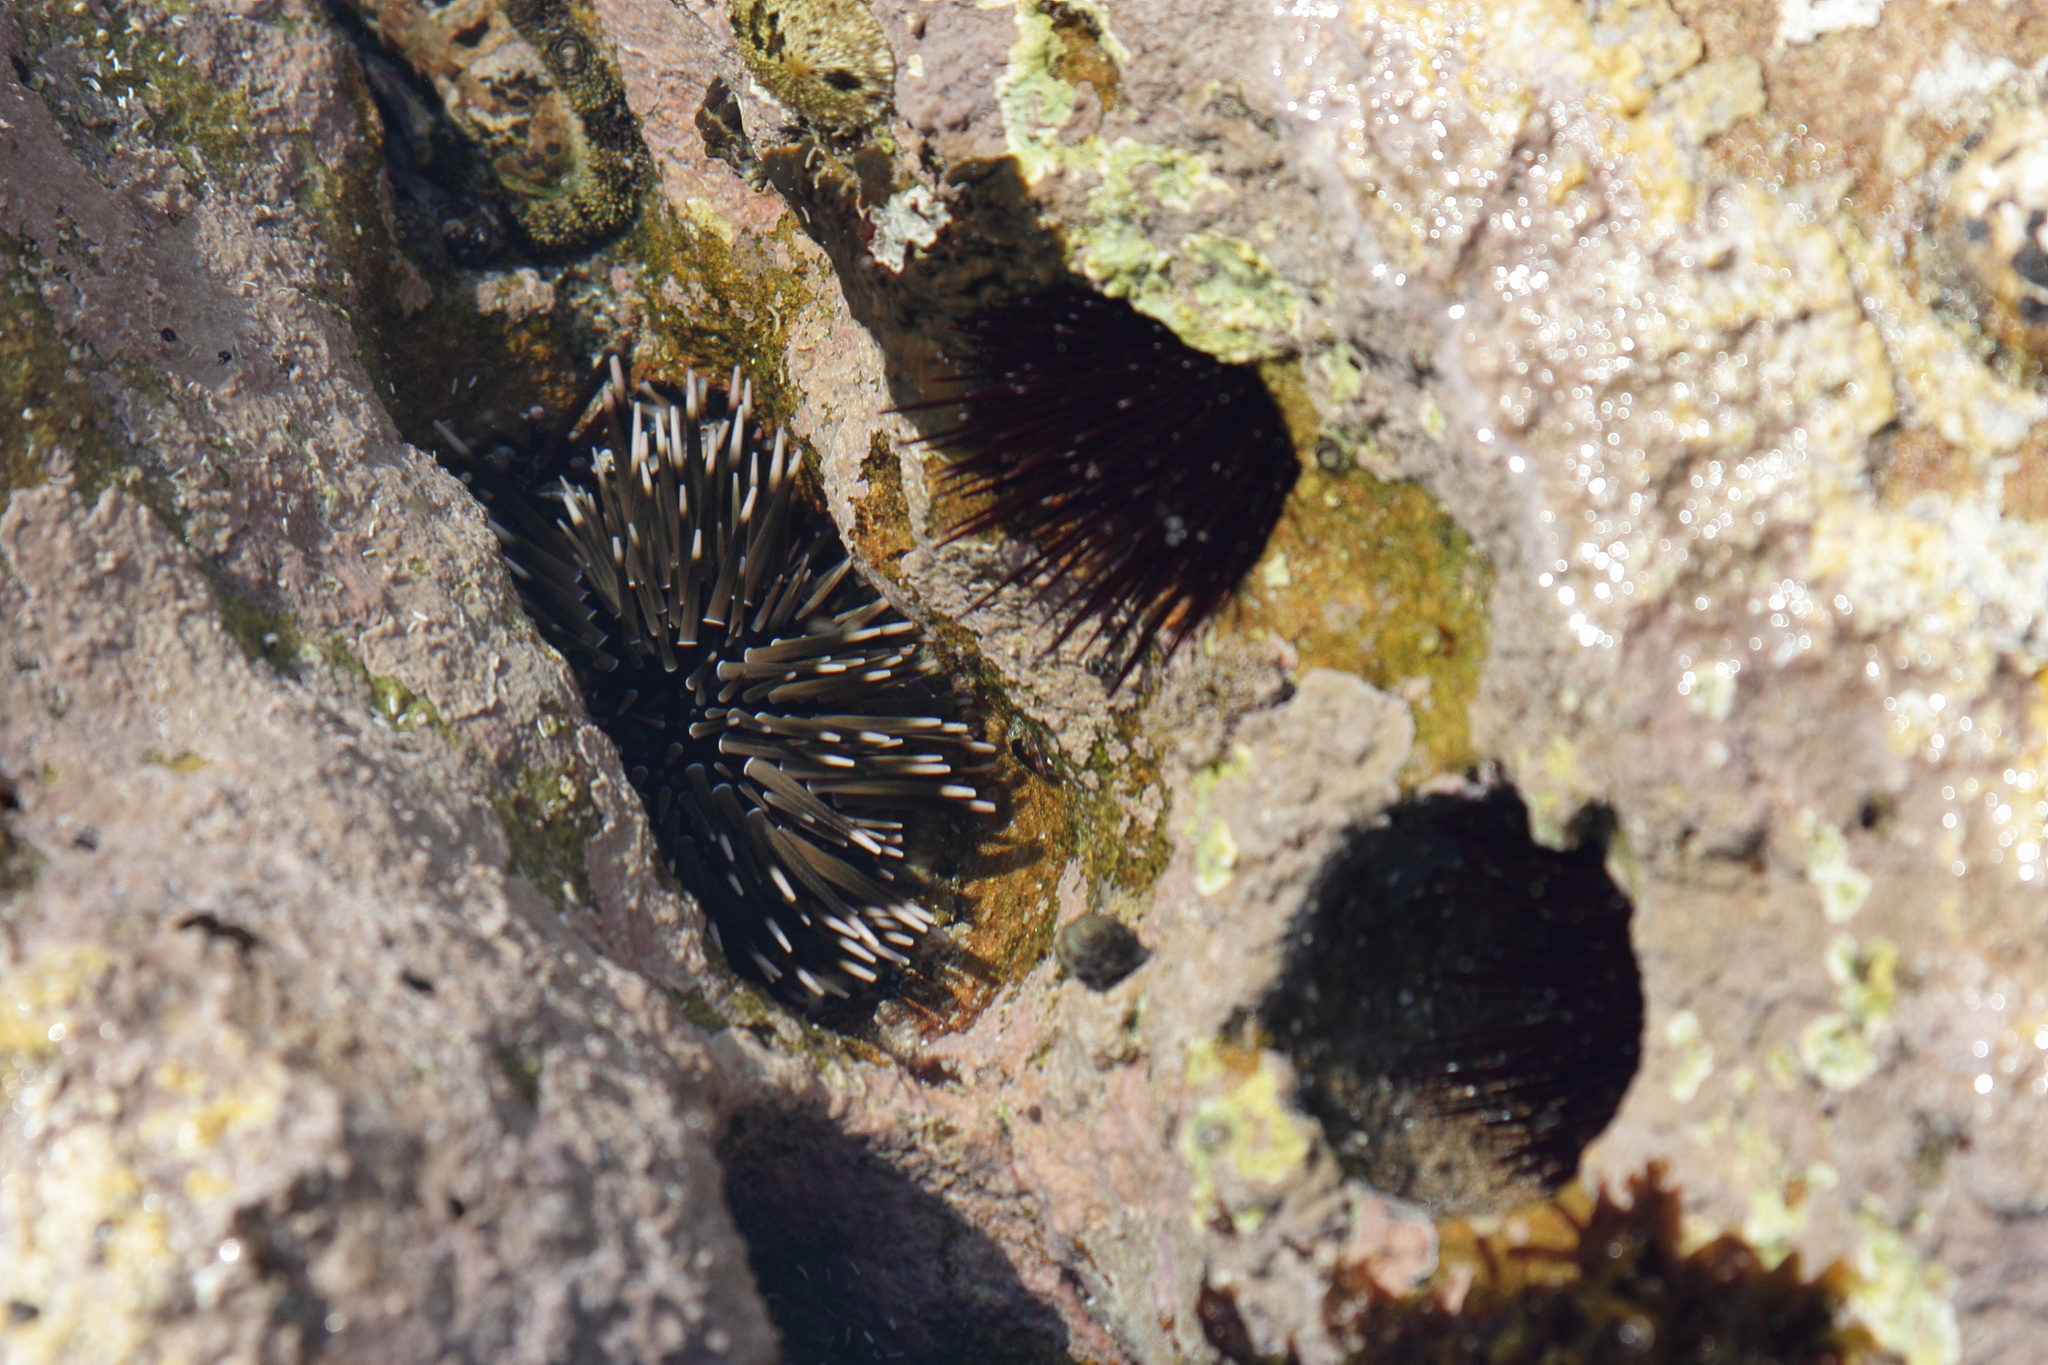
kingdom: Animalia
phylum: Echinodermata
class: Echinoidea
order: Camarodonta
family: Echinometridae
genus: Echinometra
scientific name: Echinometra mathaei
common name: Rock-boring urchin
